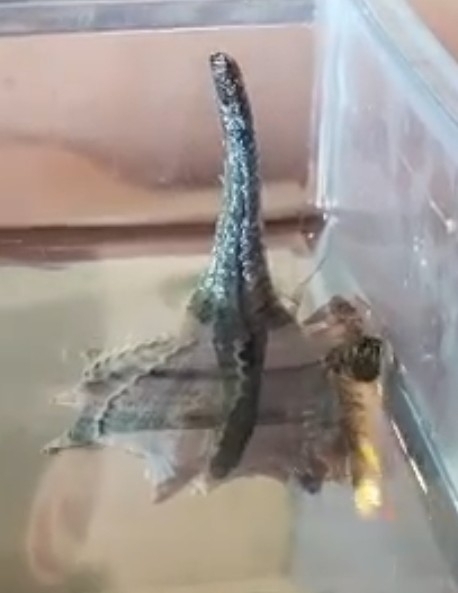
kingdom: Animalia
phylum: Mollusca
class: Gastropoda
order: Neogastropoda
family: Muricidae
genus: Bolinus
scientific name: Bolinus brandaris
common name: Dye murex
